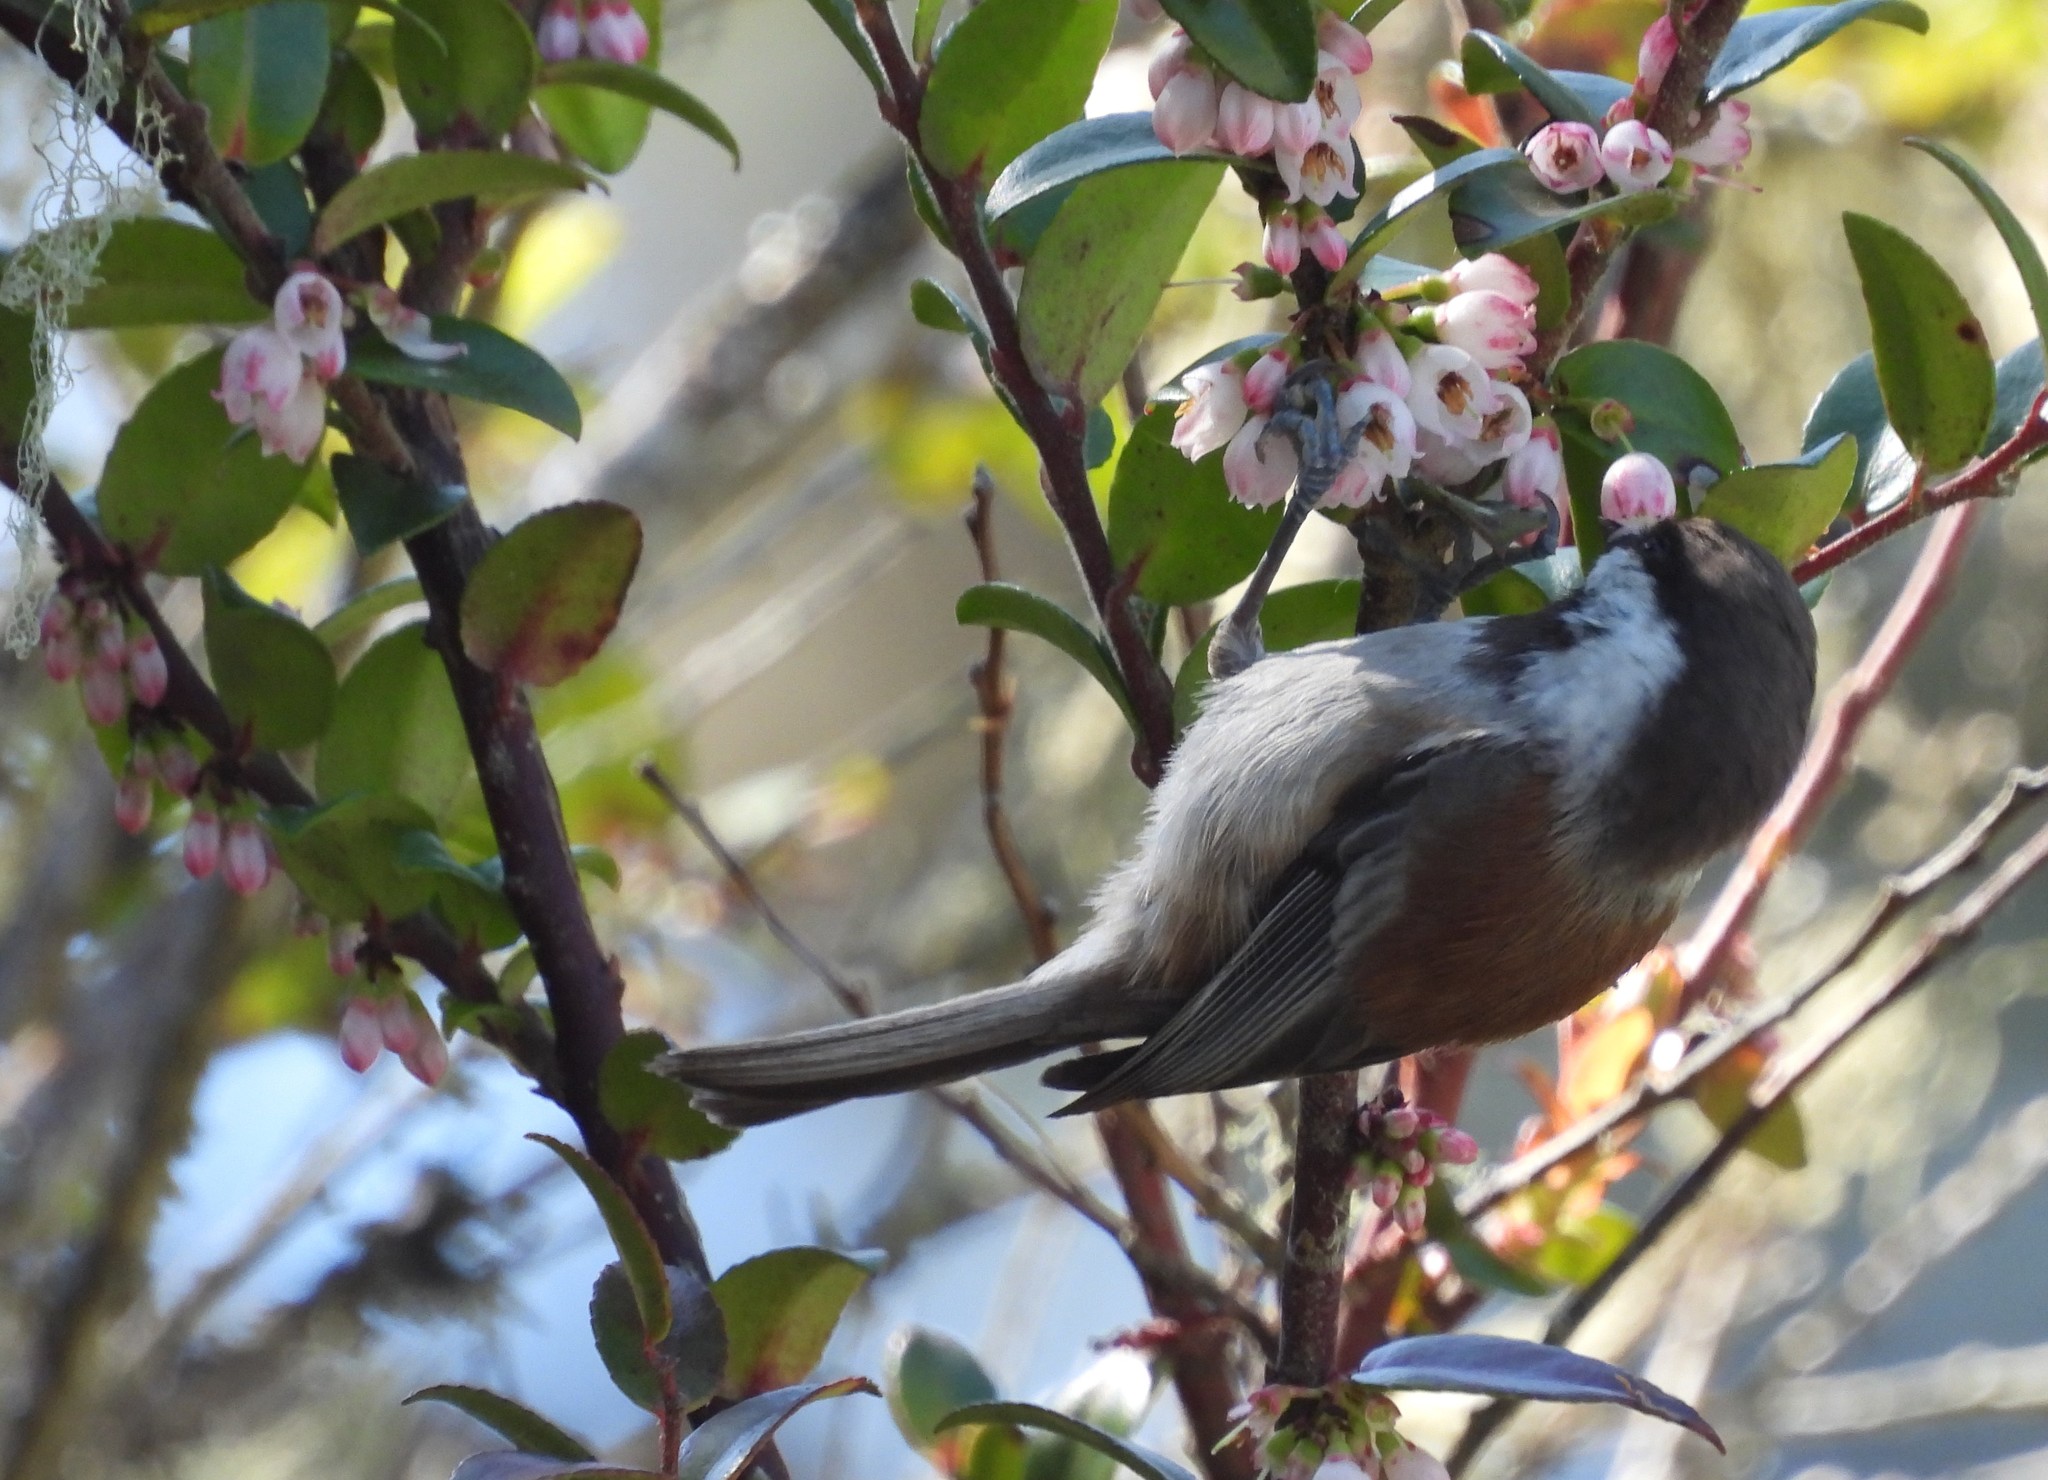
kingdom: Animalia
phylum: Chordata
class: Aves
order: Passeriformes
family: Paridae
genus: Poecile
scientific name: Poecile rufescens
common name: Chestnut-backed chickadee
